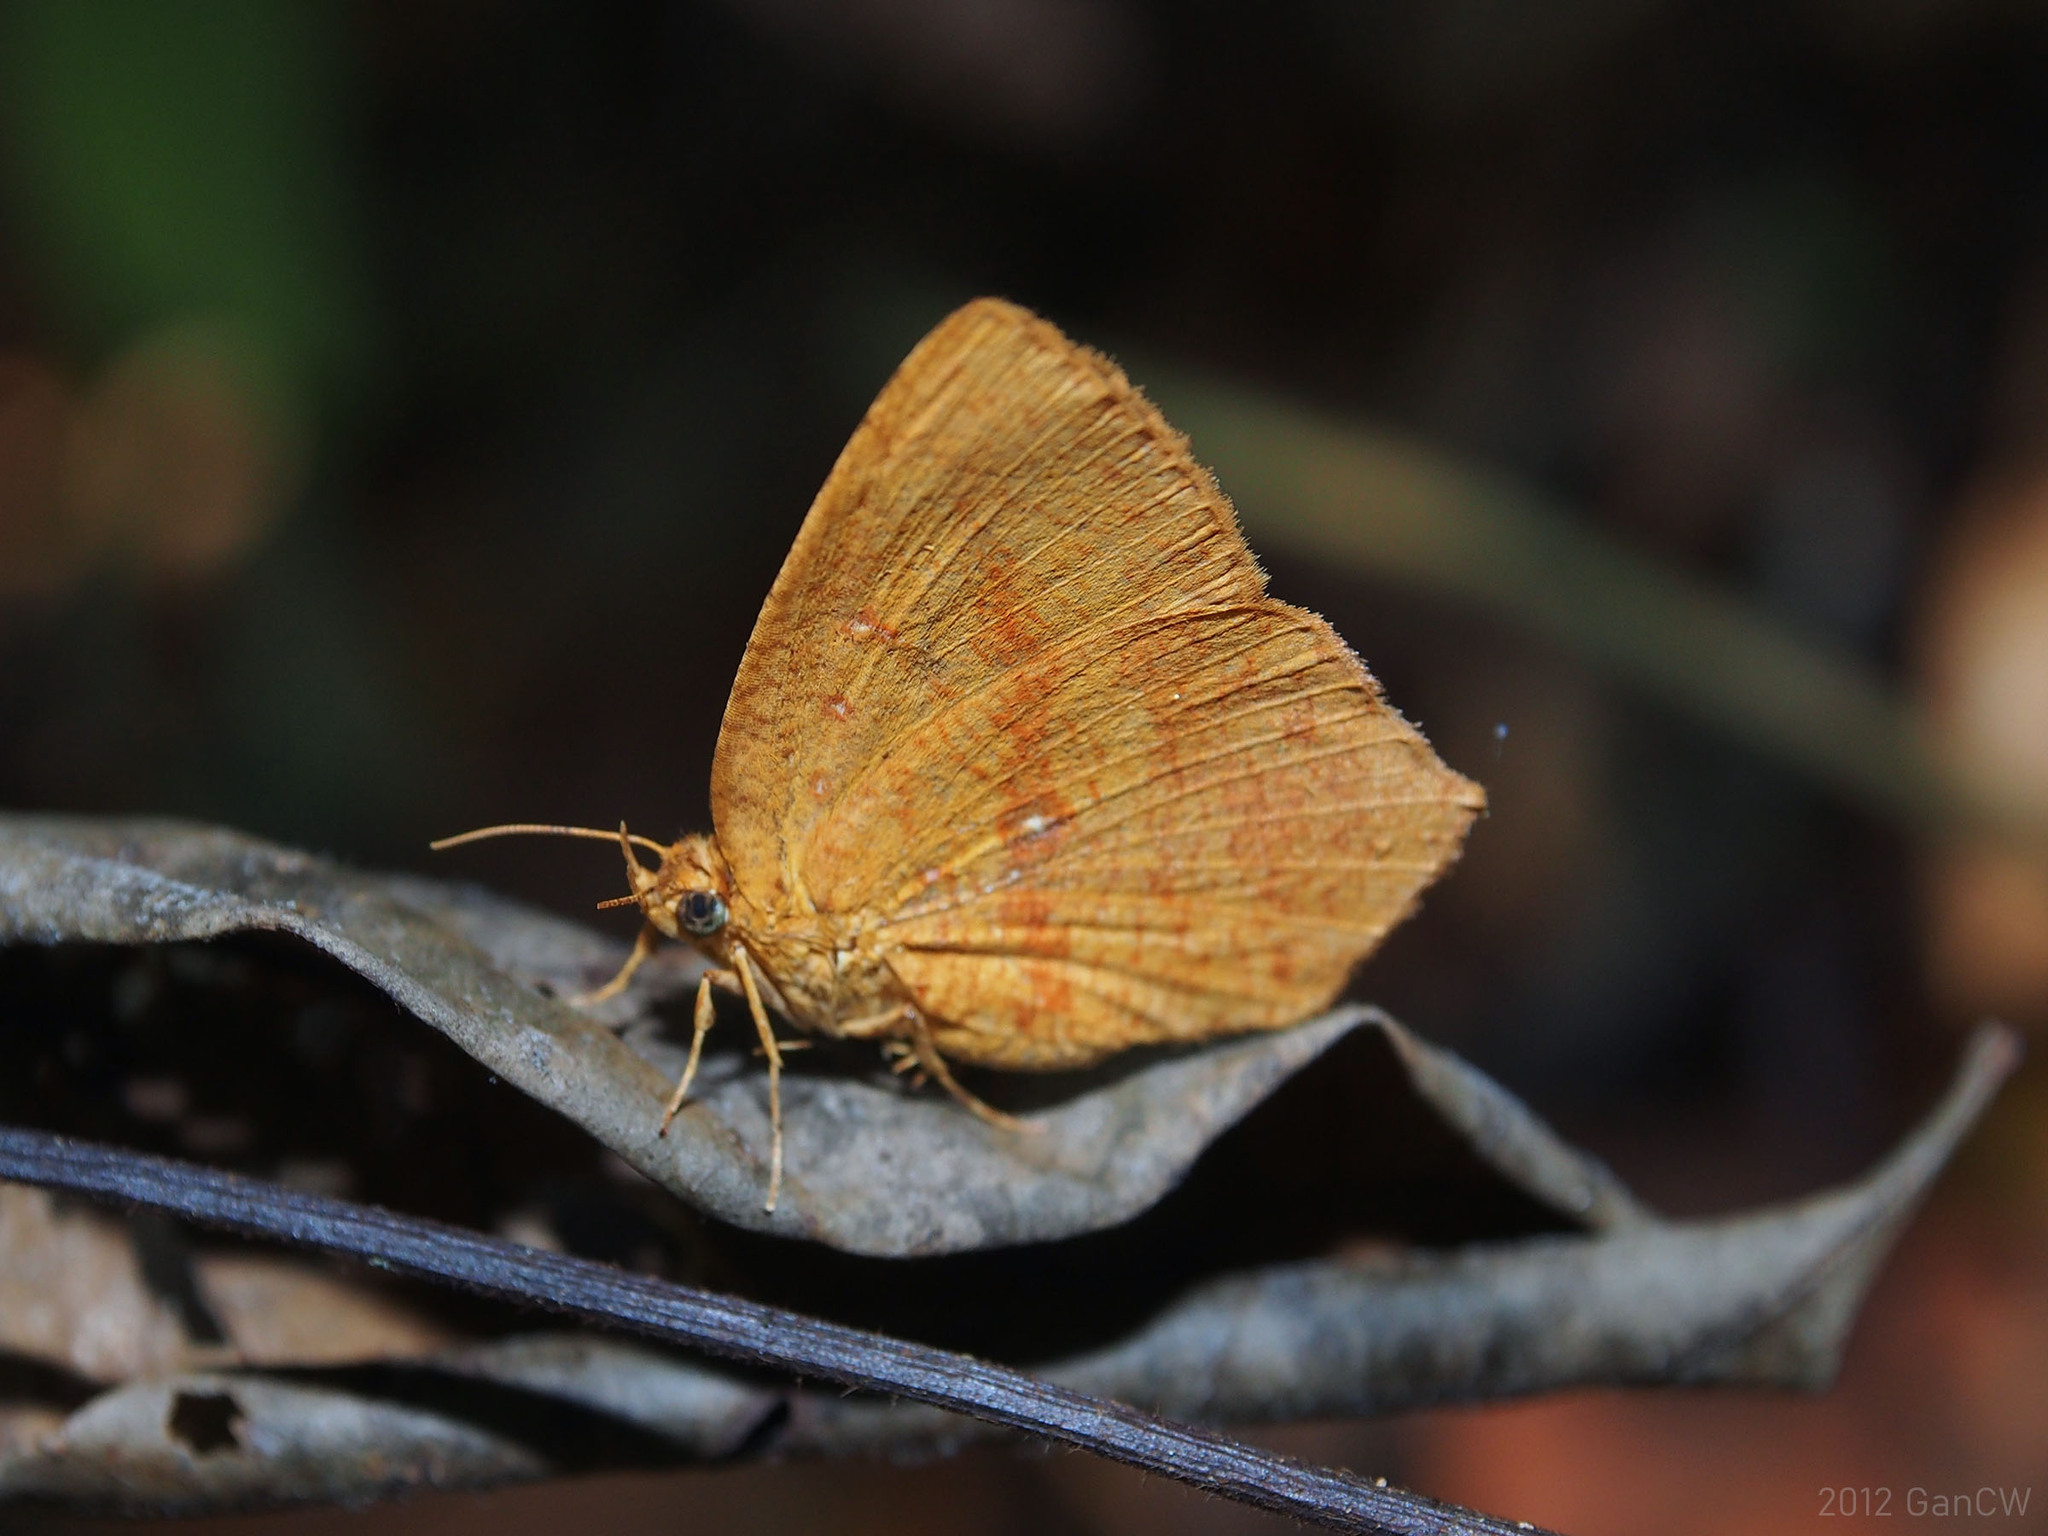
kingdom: Animalia
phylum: Arthropoda
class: Insecta
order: Lepidoptera
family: Callidulidae
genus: Tetragonus
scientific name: Tetragonus catamitus
